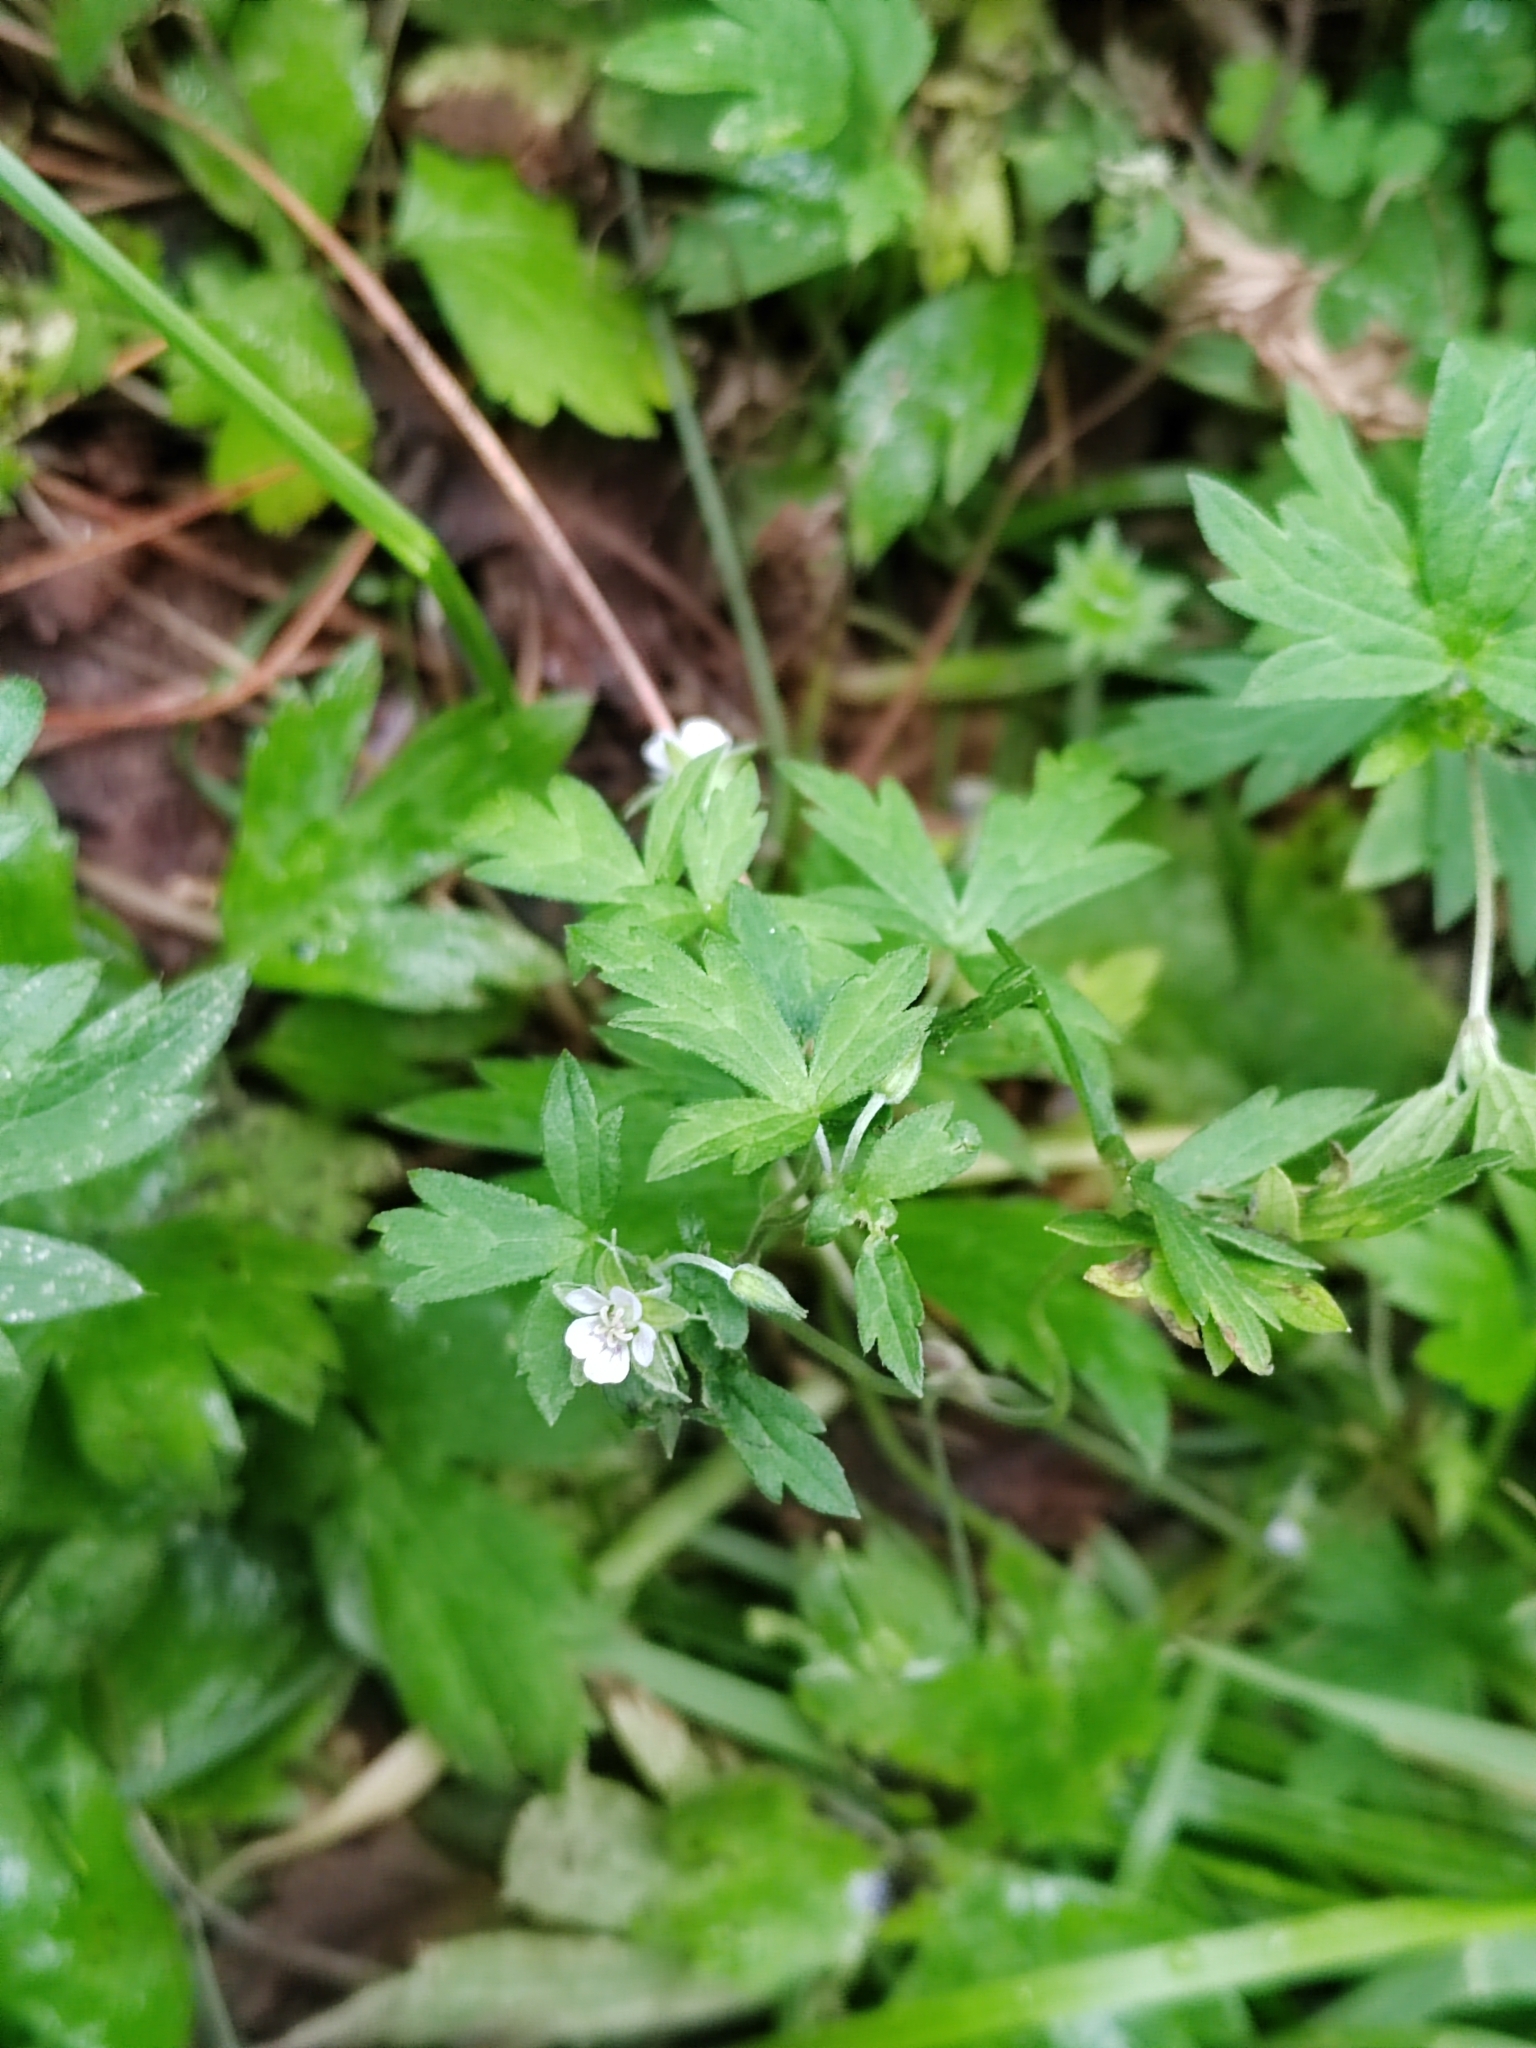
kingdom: Plantae
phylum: Tracheophyta
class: Magnoliopsida
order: Geraniales
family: Geraniaceae
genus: Geranium
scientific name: Geranium sibiricum
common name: Siberian crane's-bill
